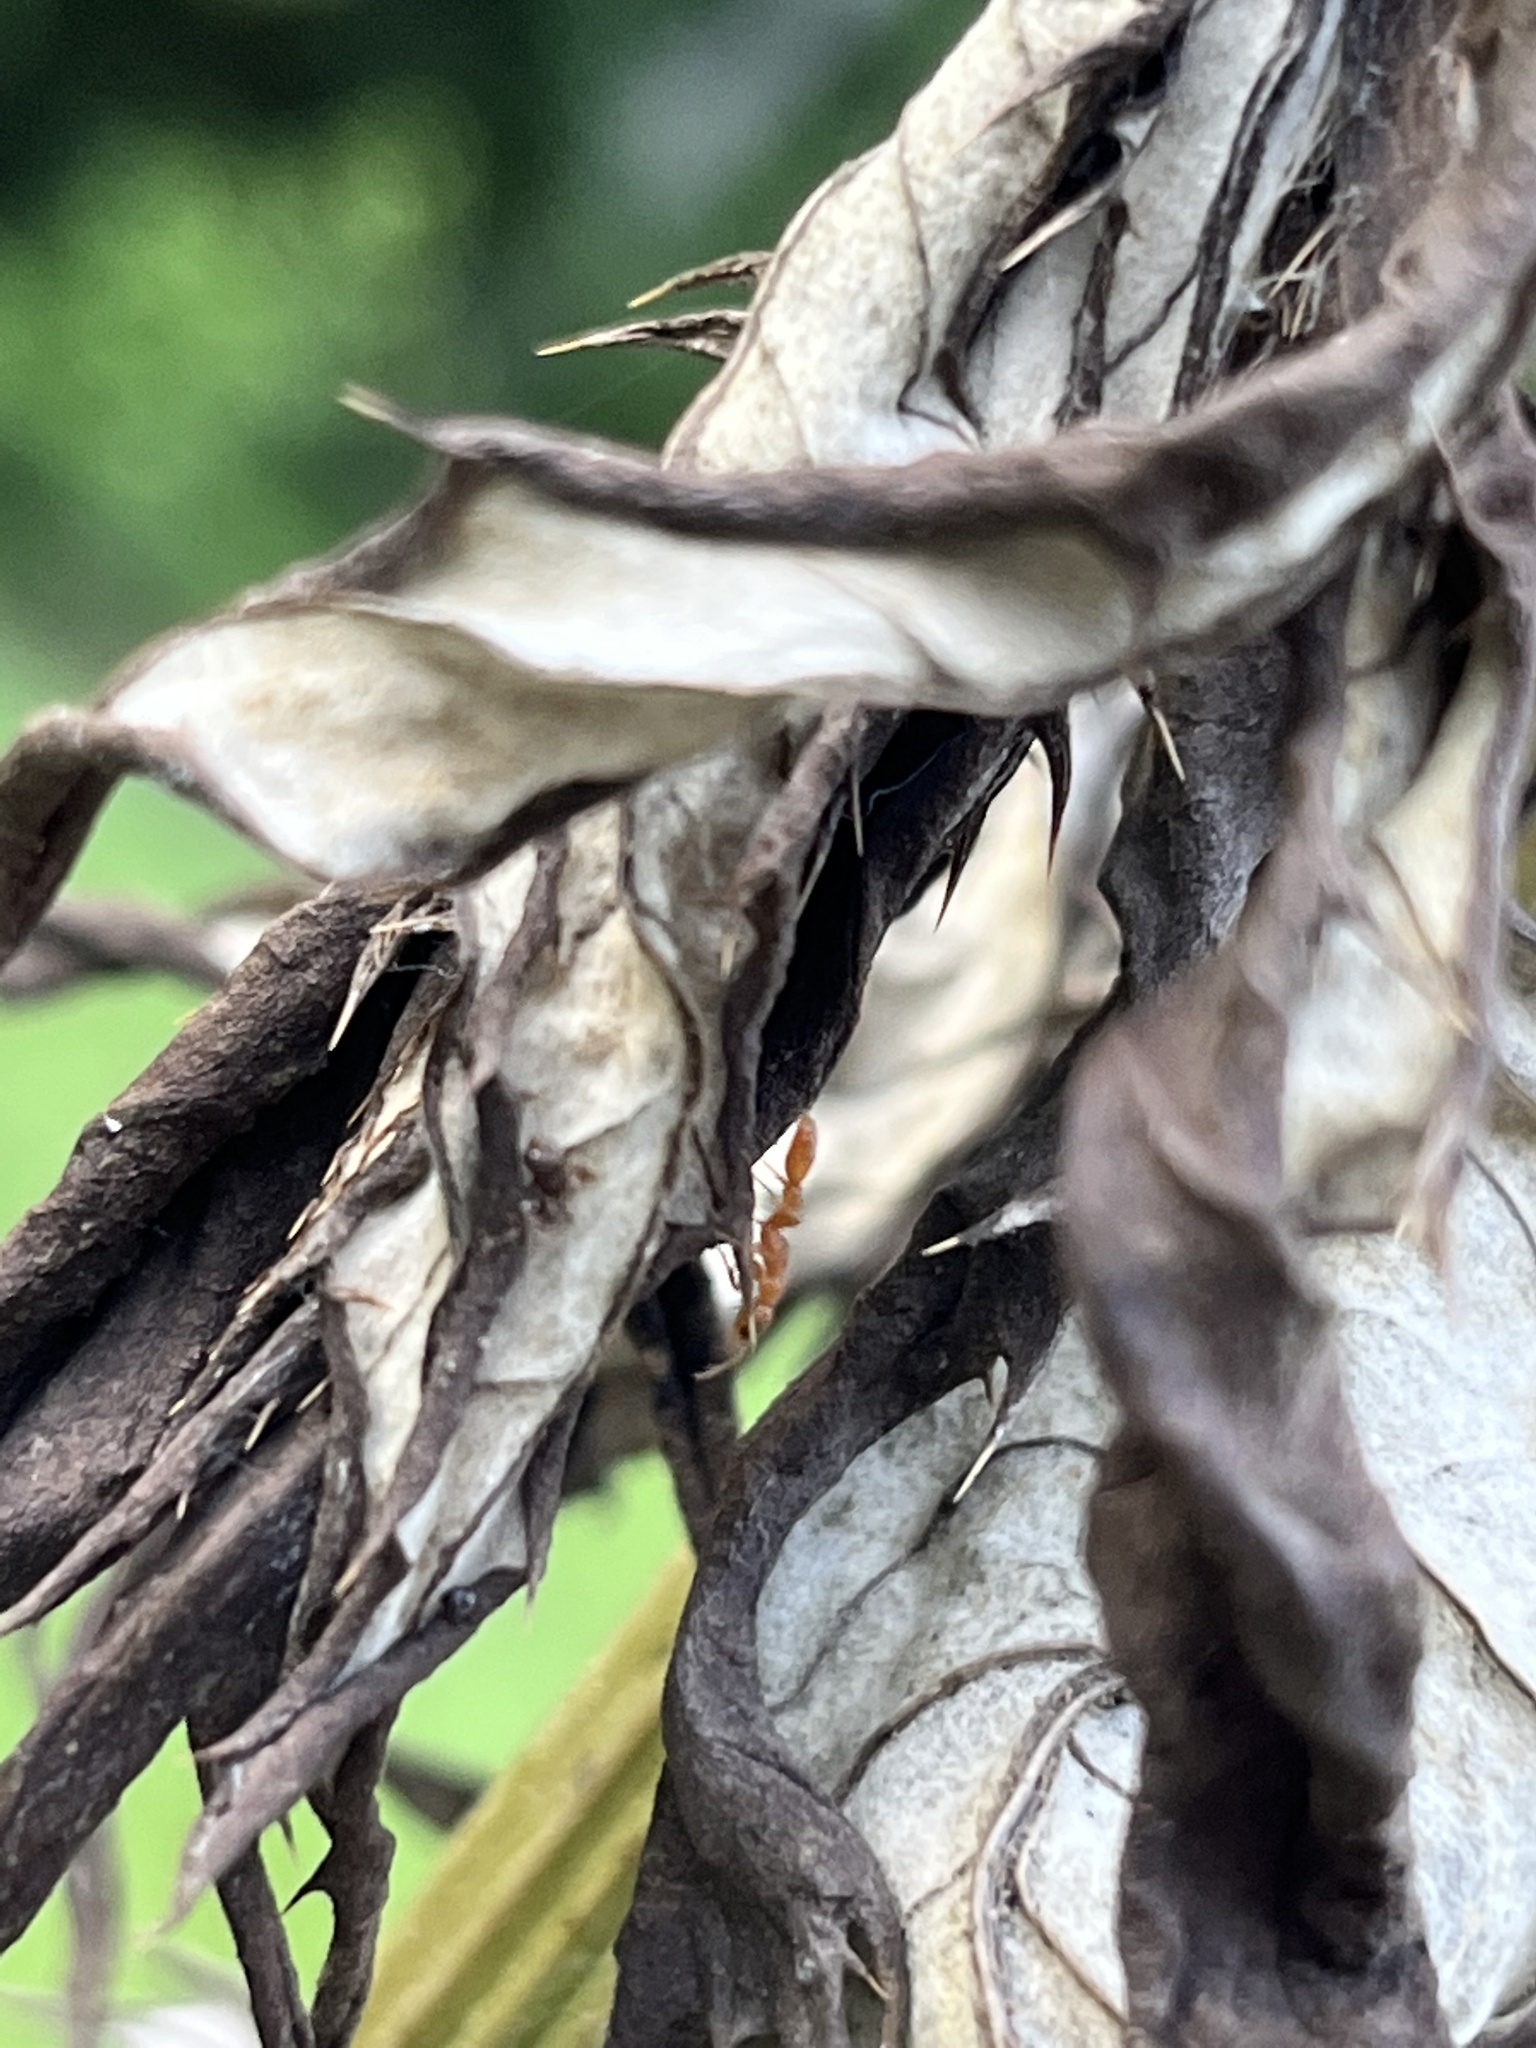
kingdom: Animalia
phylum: Arthropoda
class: Insecta
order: Hymenoptera
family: Formicidae
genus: Pseudomyrmex
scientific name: Pseudomyrmex pallidus
